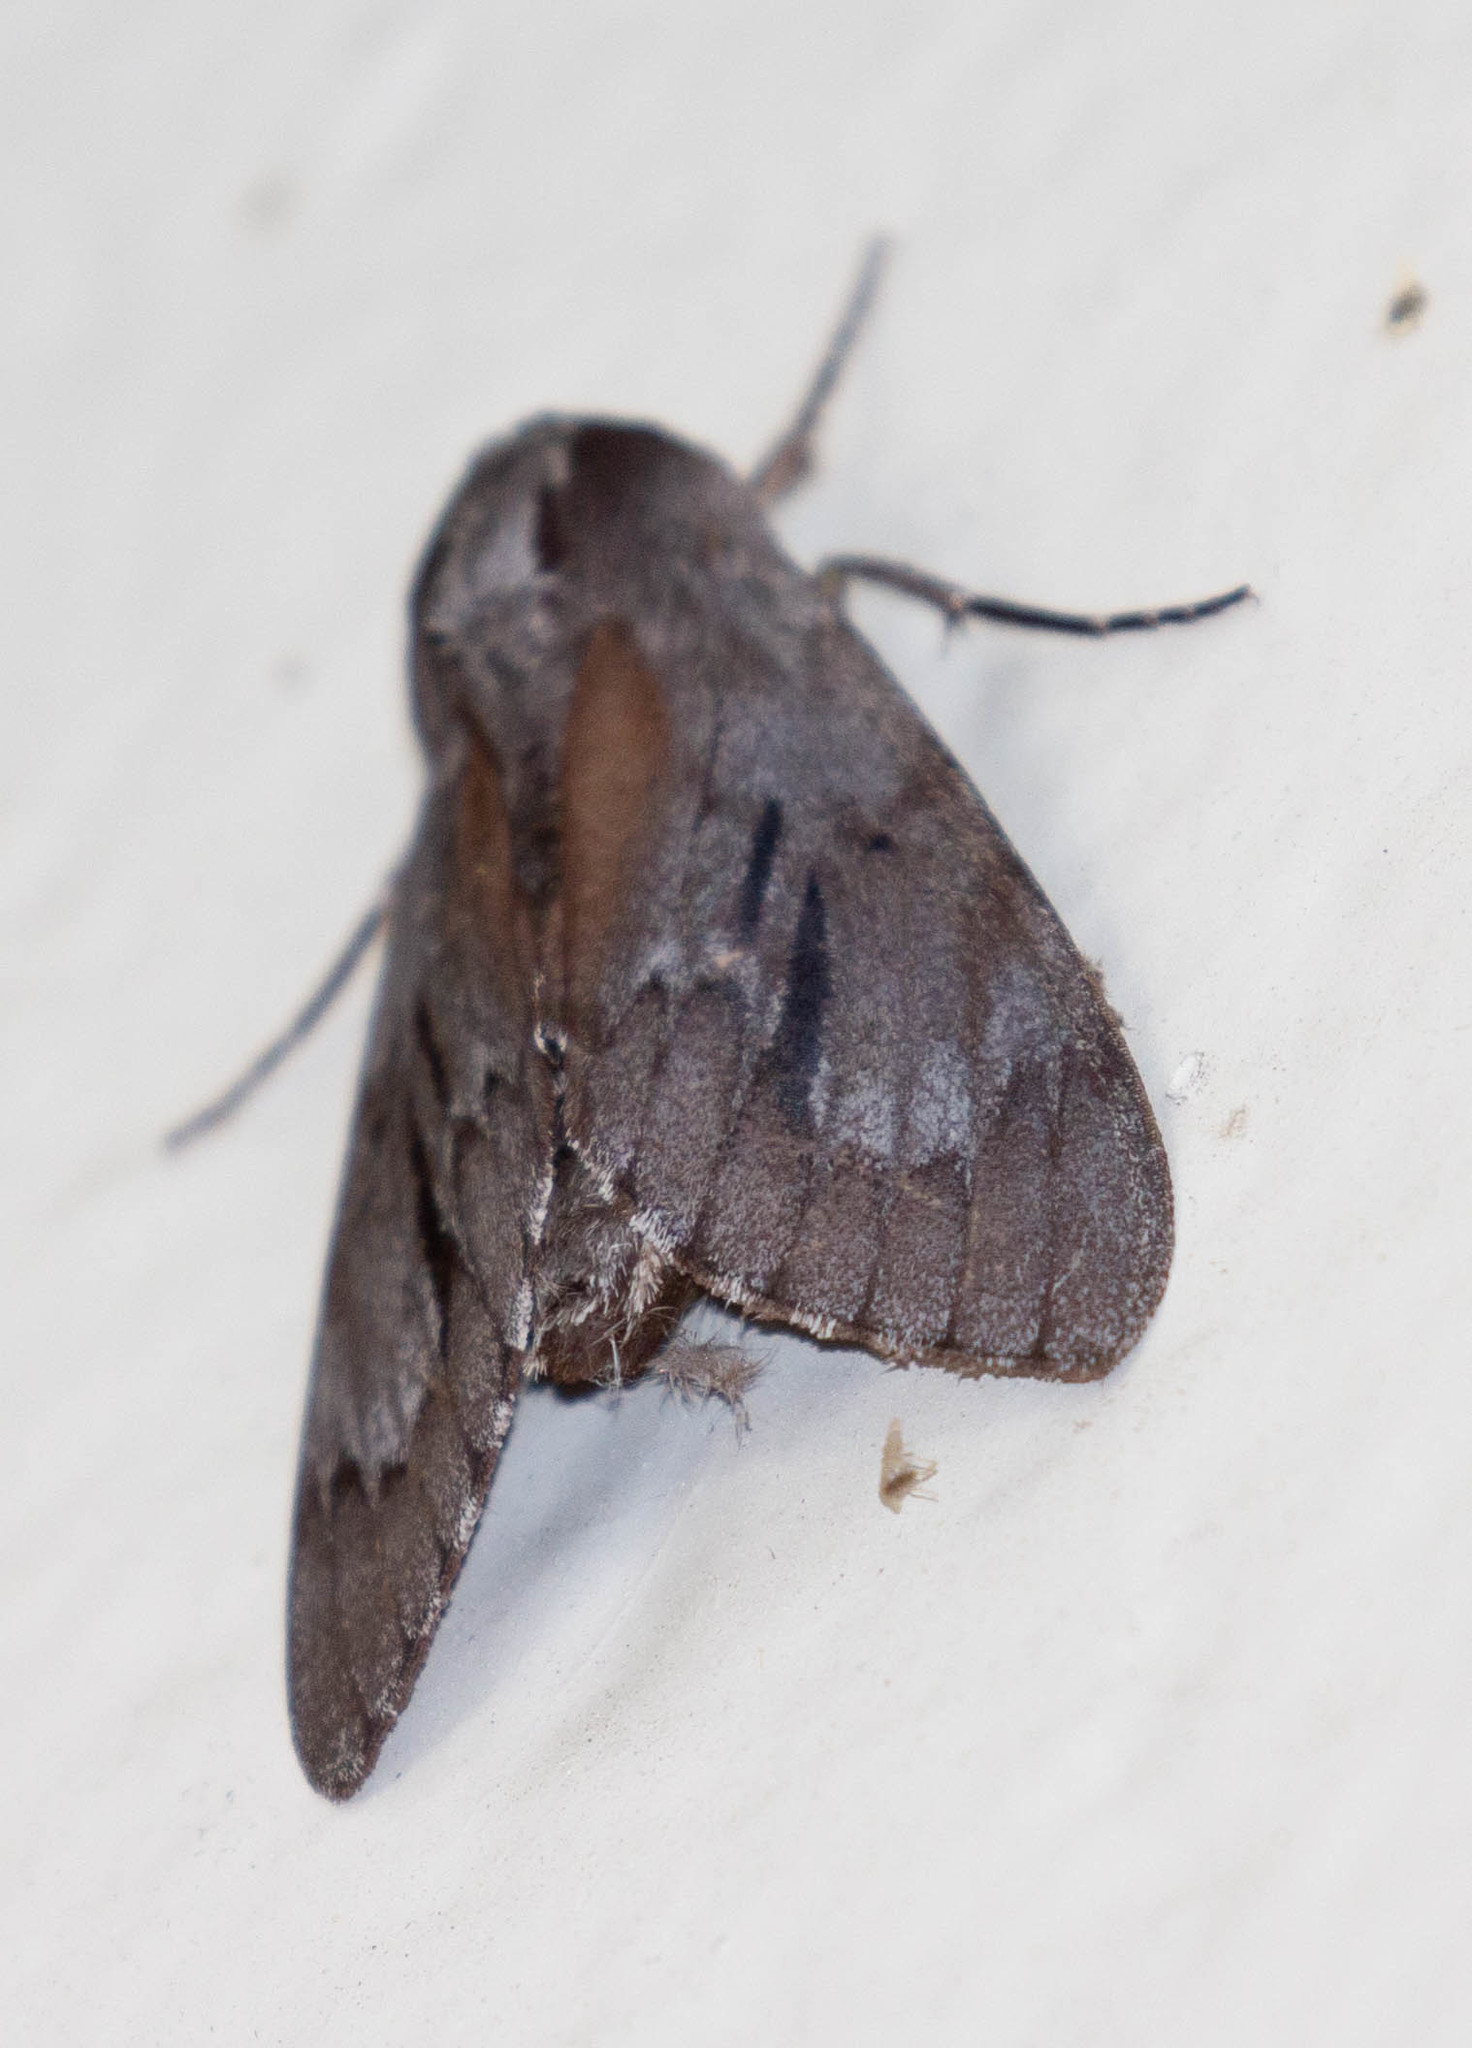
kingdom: Animalia
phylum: Arthropoda
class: Insecta
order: Lepidoptera
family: Sphingidae
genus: Lapara
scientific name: Lapara coniferarum
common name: Southern pine sphinx
